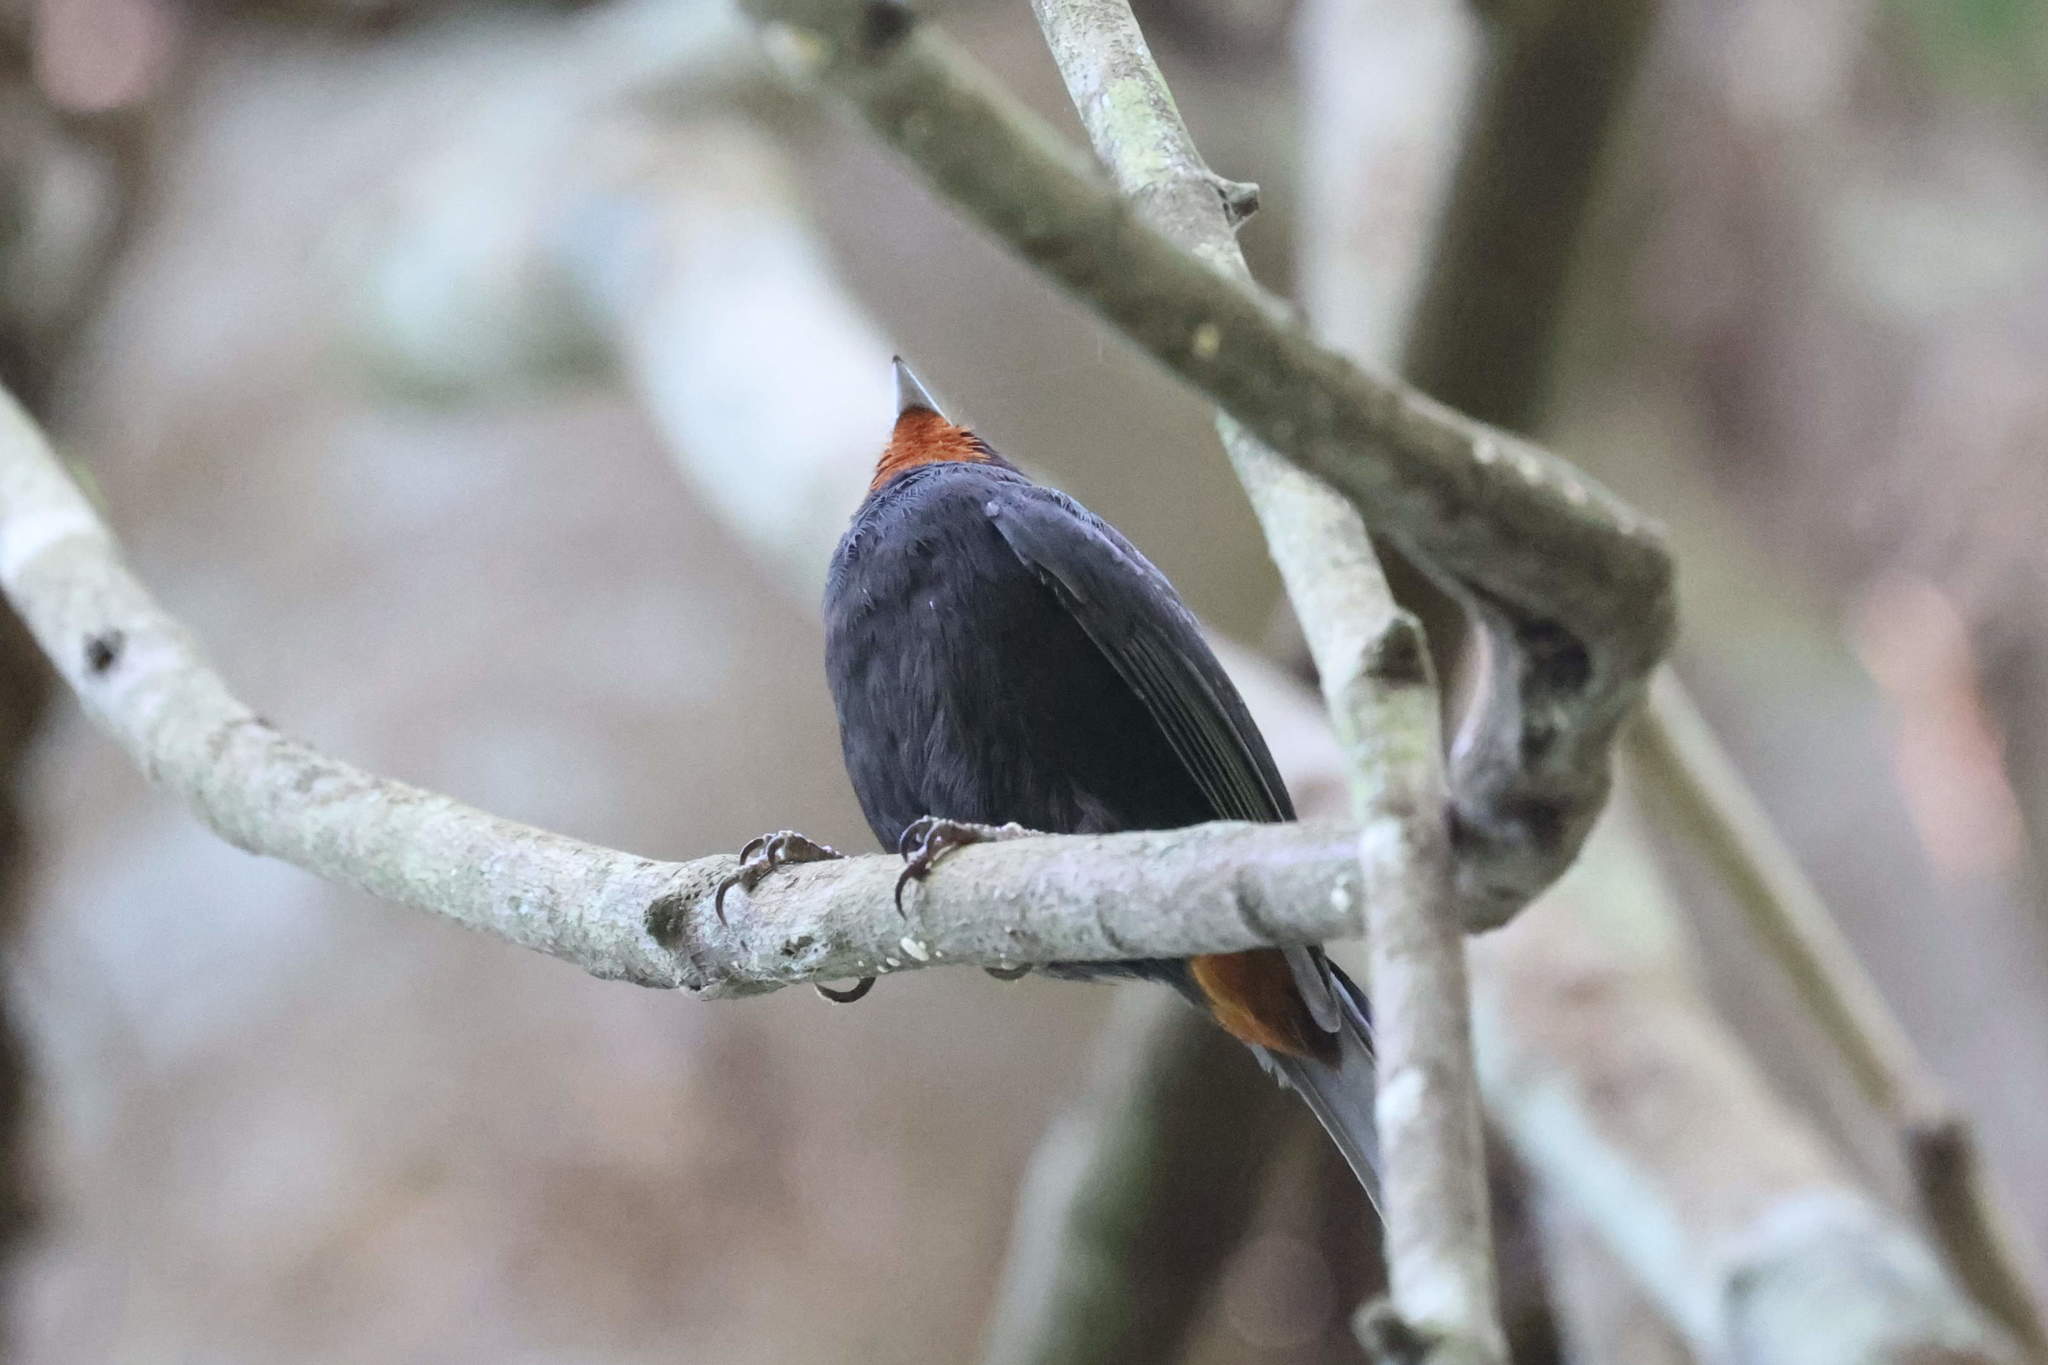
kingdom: Animalia
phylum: Chordata
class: Aves
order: Passeriformes
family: Thraupidae
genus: Loxigilla
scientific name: Loxigilla noctis
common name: Lesser antillean bullfinch
